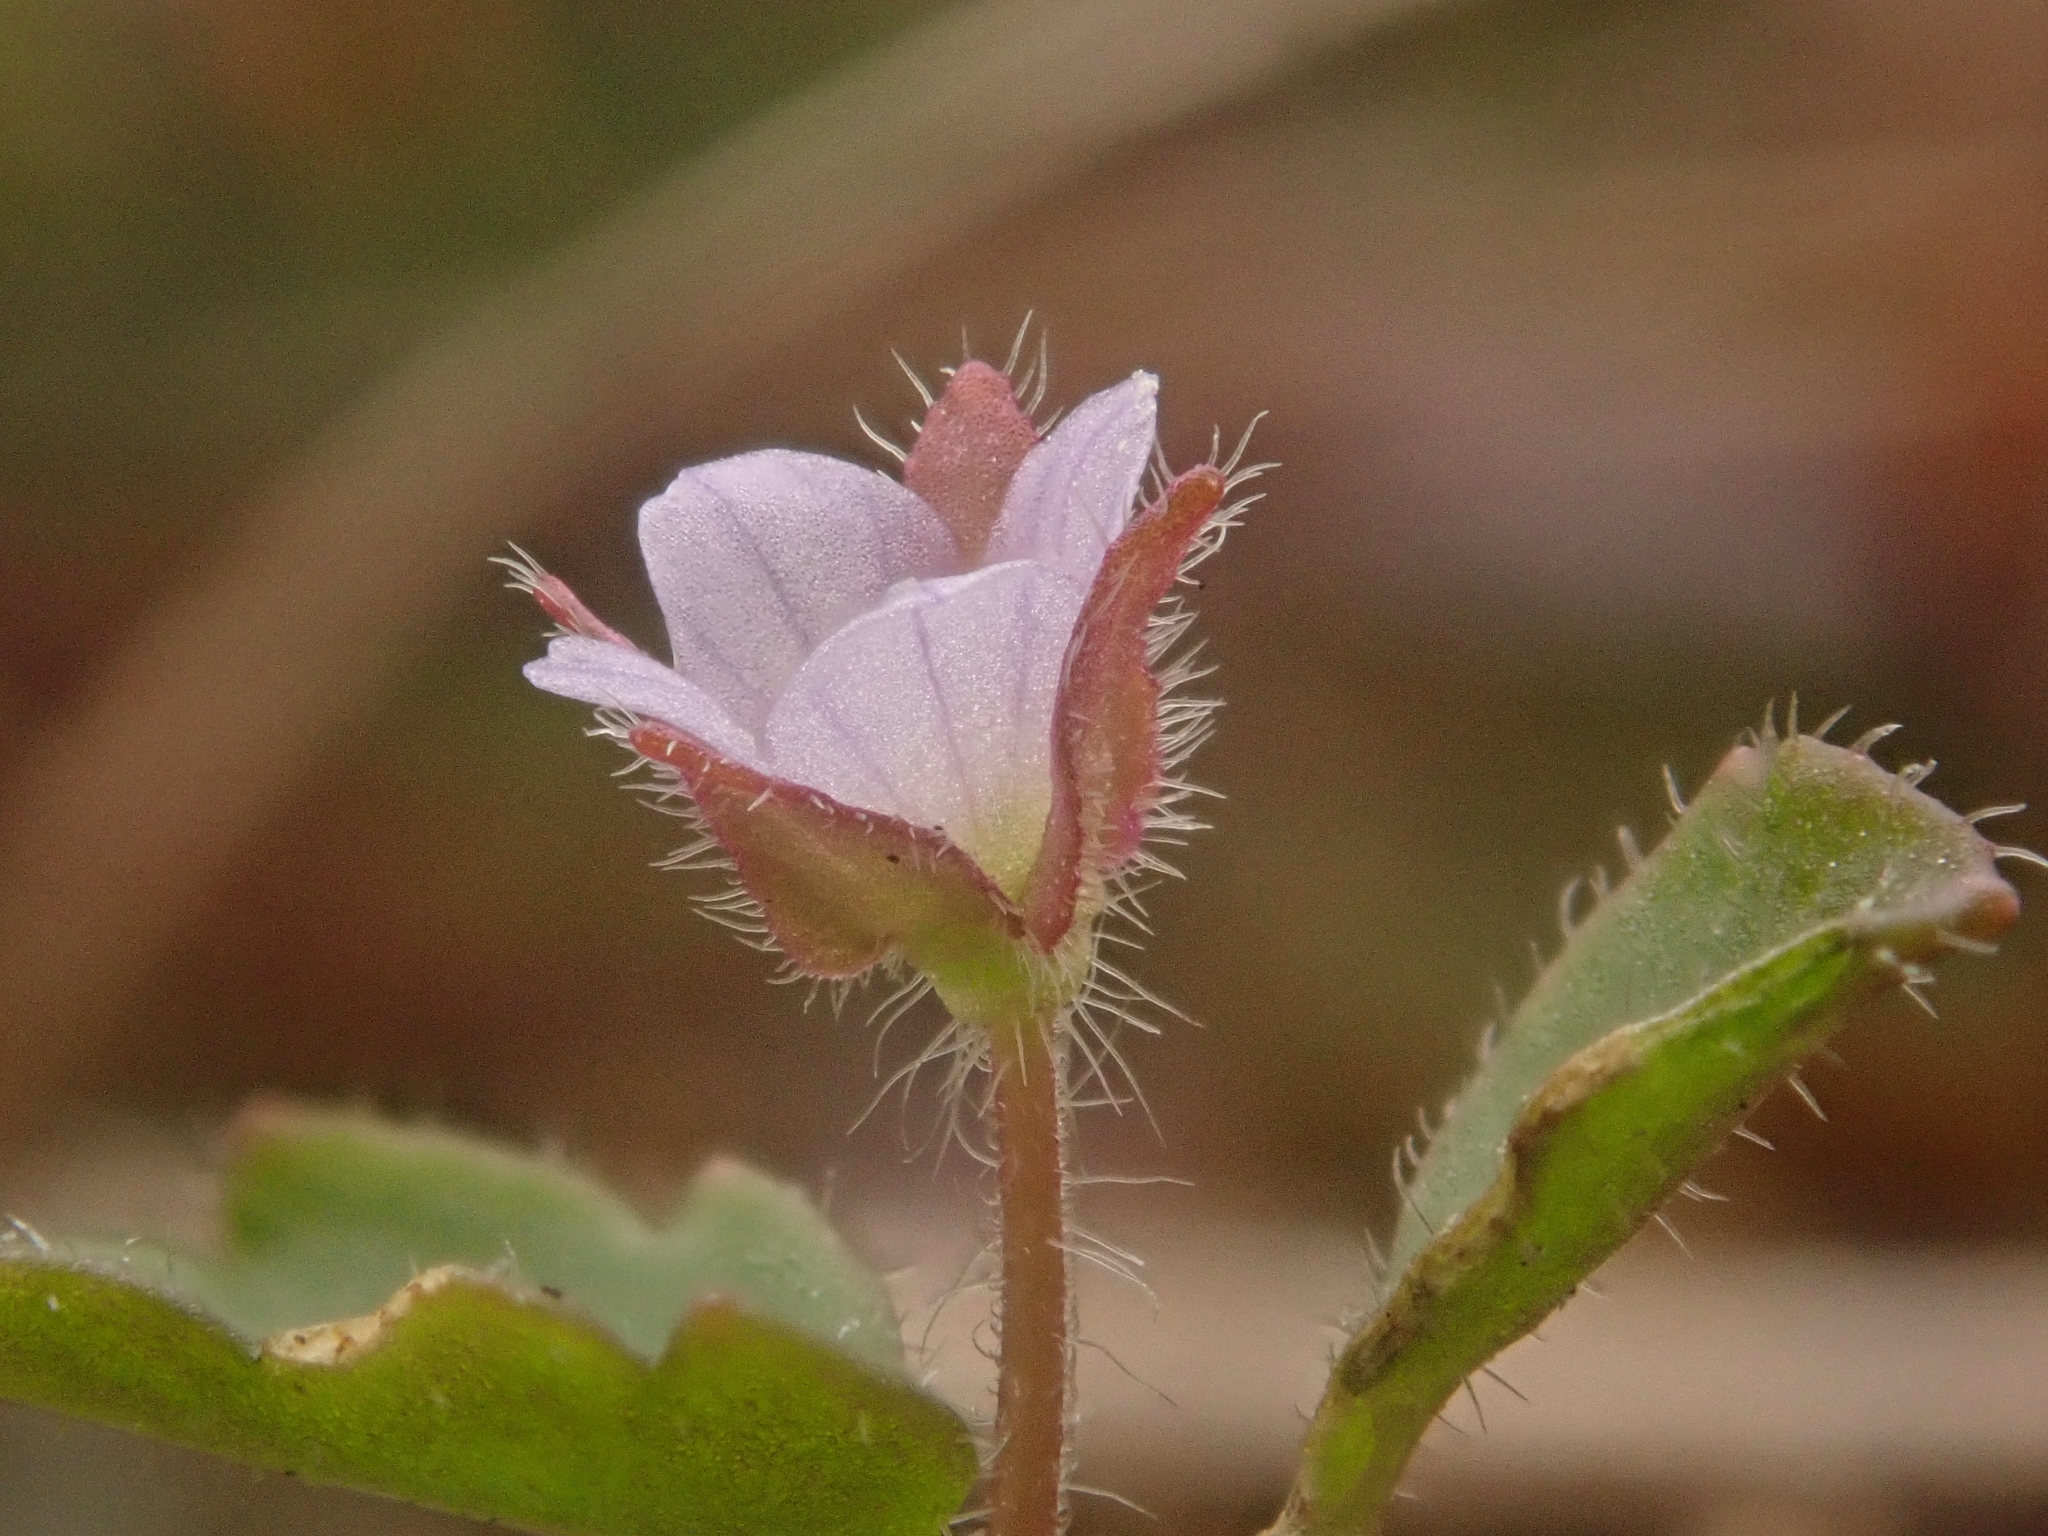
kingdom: Plantae
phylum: Tracheophyta
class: Magnoliopsida
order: Lamiales
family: Plantaginaceae
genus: Veronica
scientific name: Veronica sublobata
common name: False ivy-leaved speedwell
